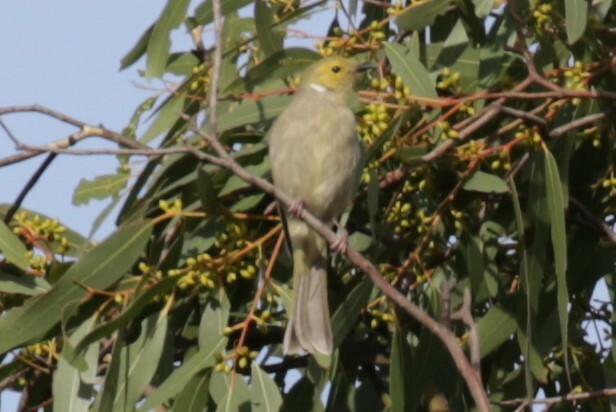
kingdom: Animalia
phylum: Chordata
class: Aves
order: Passeriformes
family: Meliphagidae
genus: Ptilotula
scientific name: Ptilotula penicillata
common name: White-plumed honeyeater
